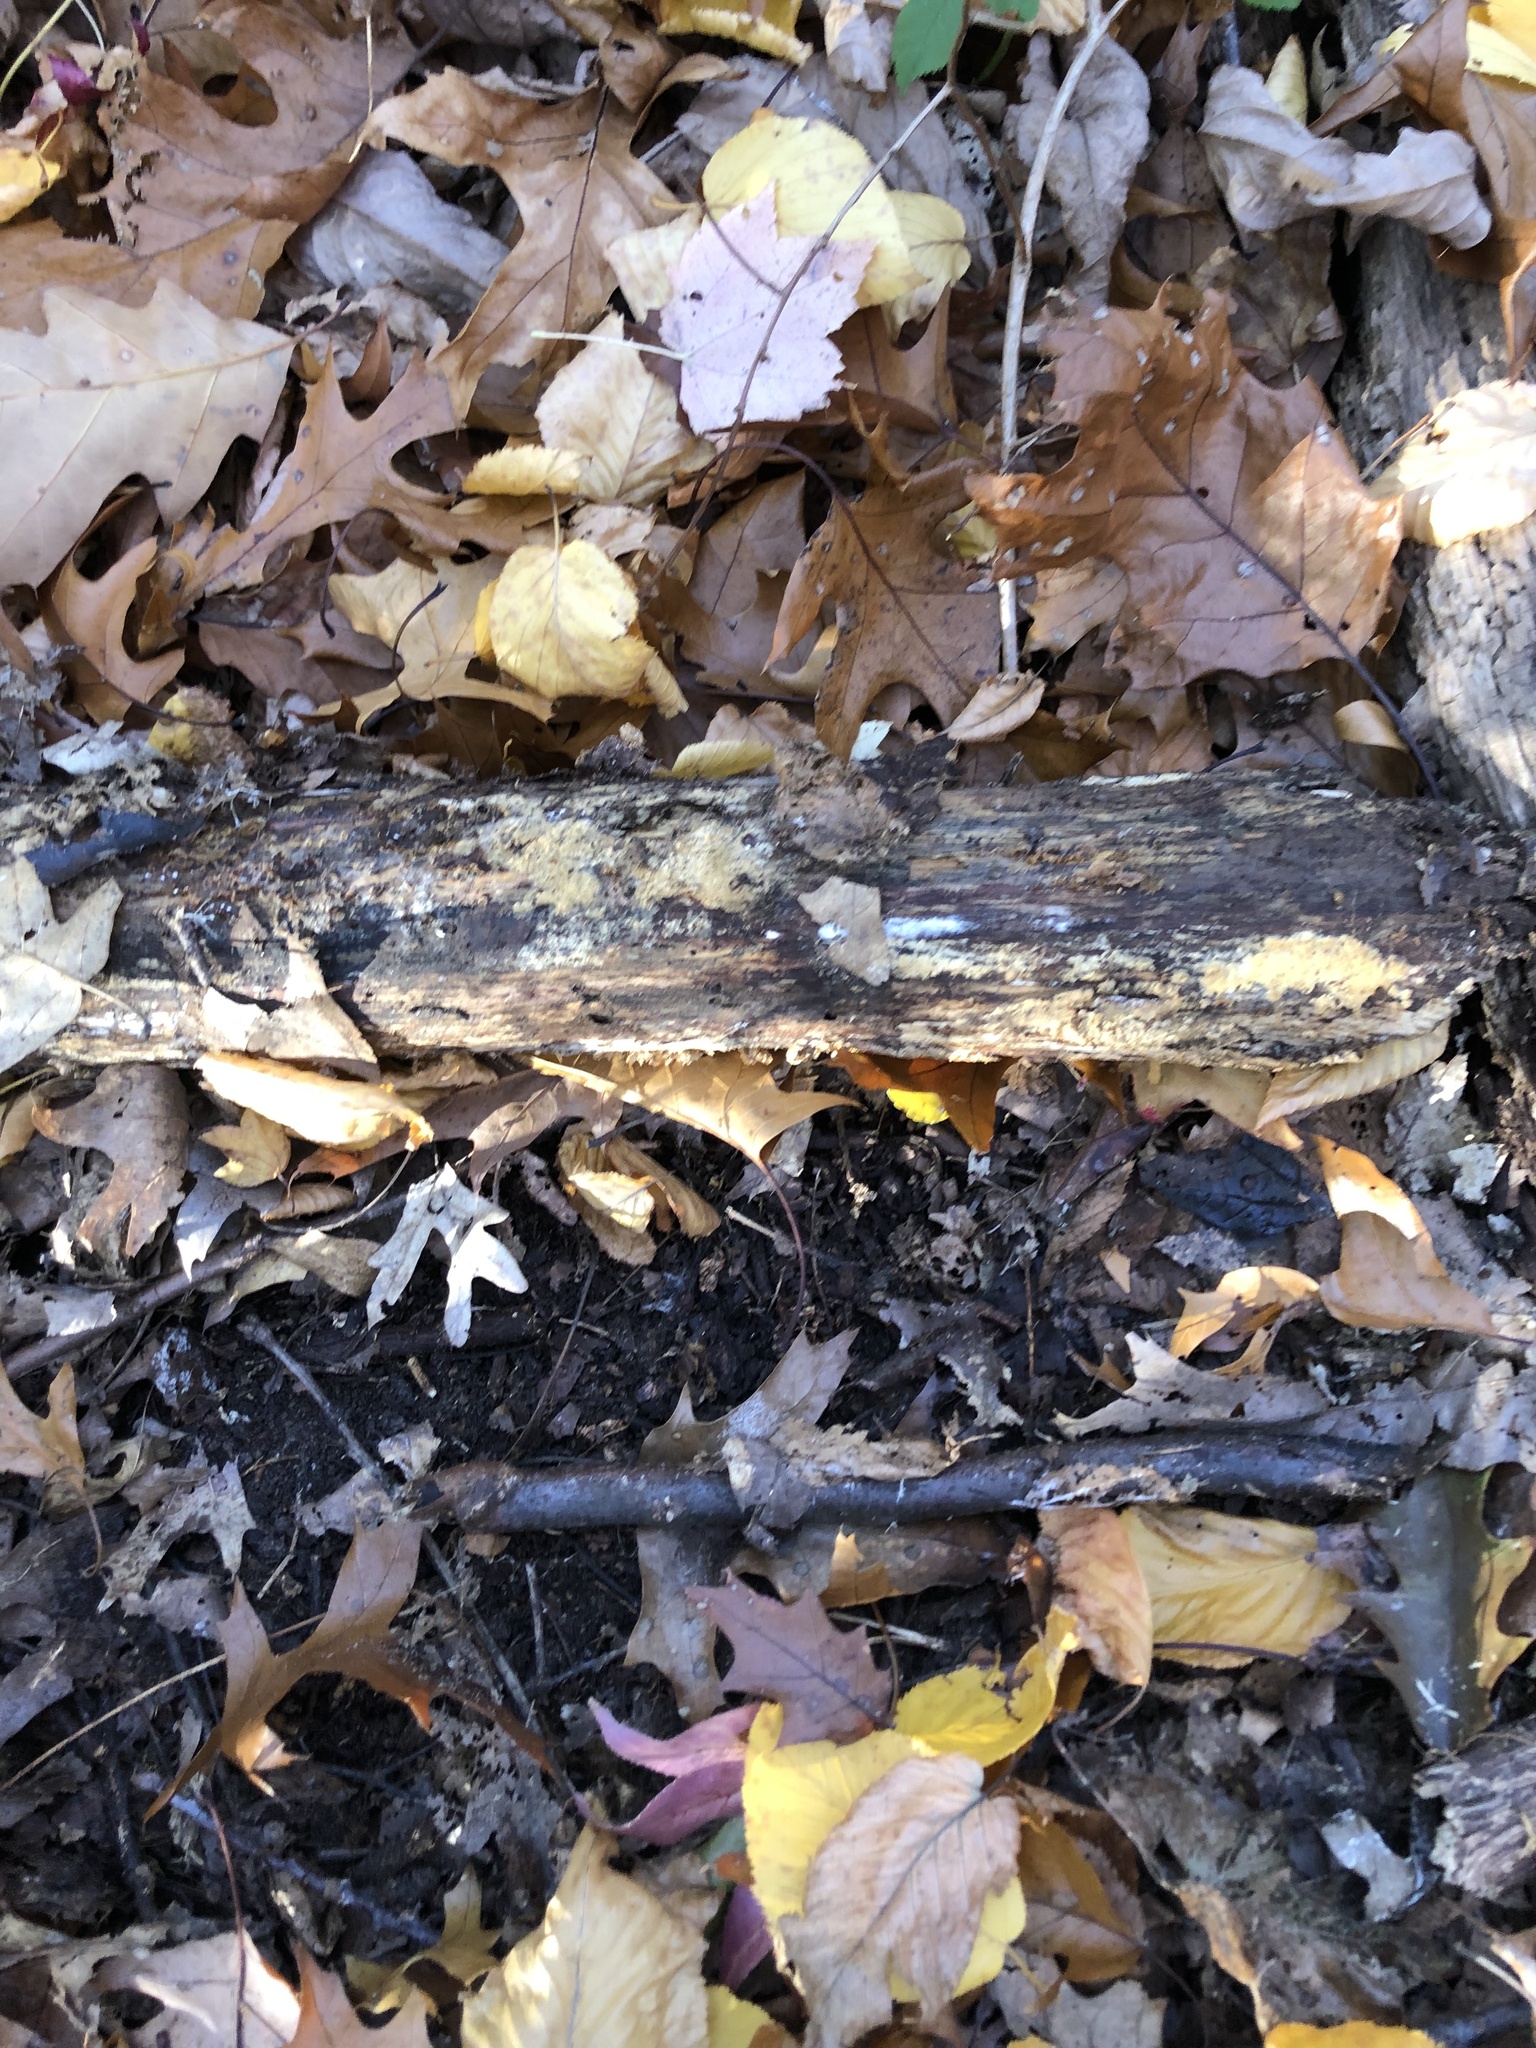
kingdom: Fungi
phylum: Basidiomycota
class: Dacrymycetes
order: Dacrymycetales
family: Dacrymycetaceae
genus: Dacrymyces
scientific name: Dacrymyces stillatus
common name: Common jelly spot
